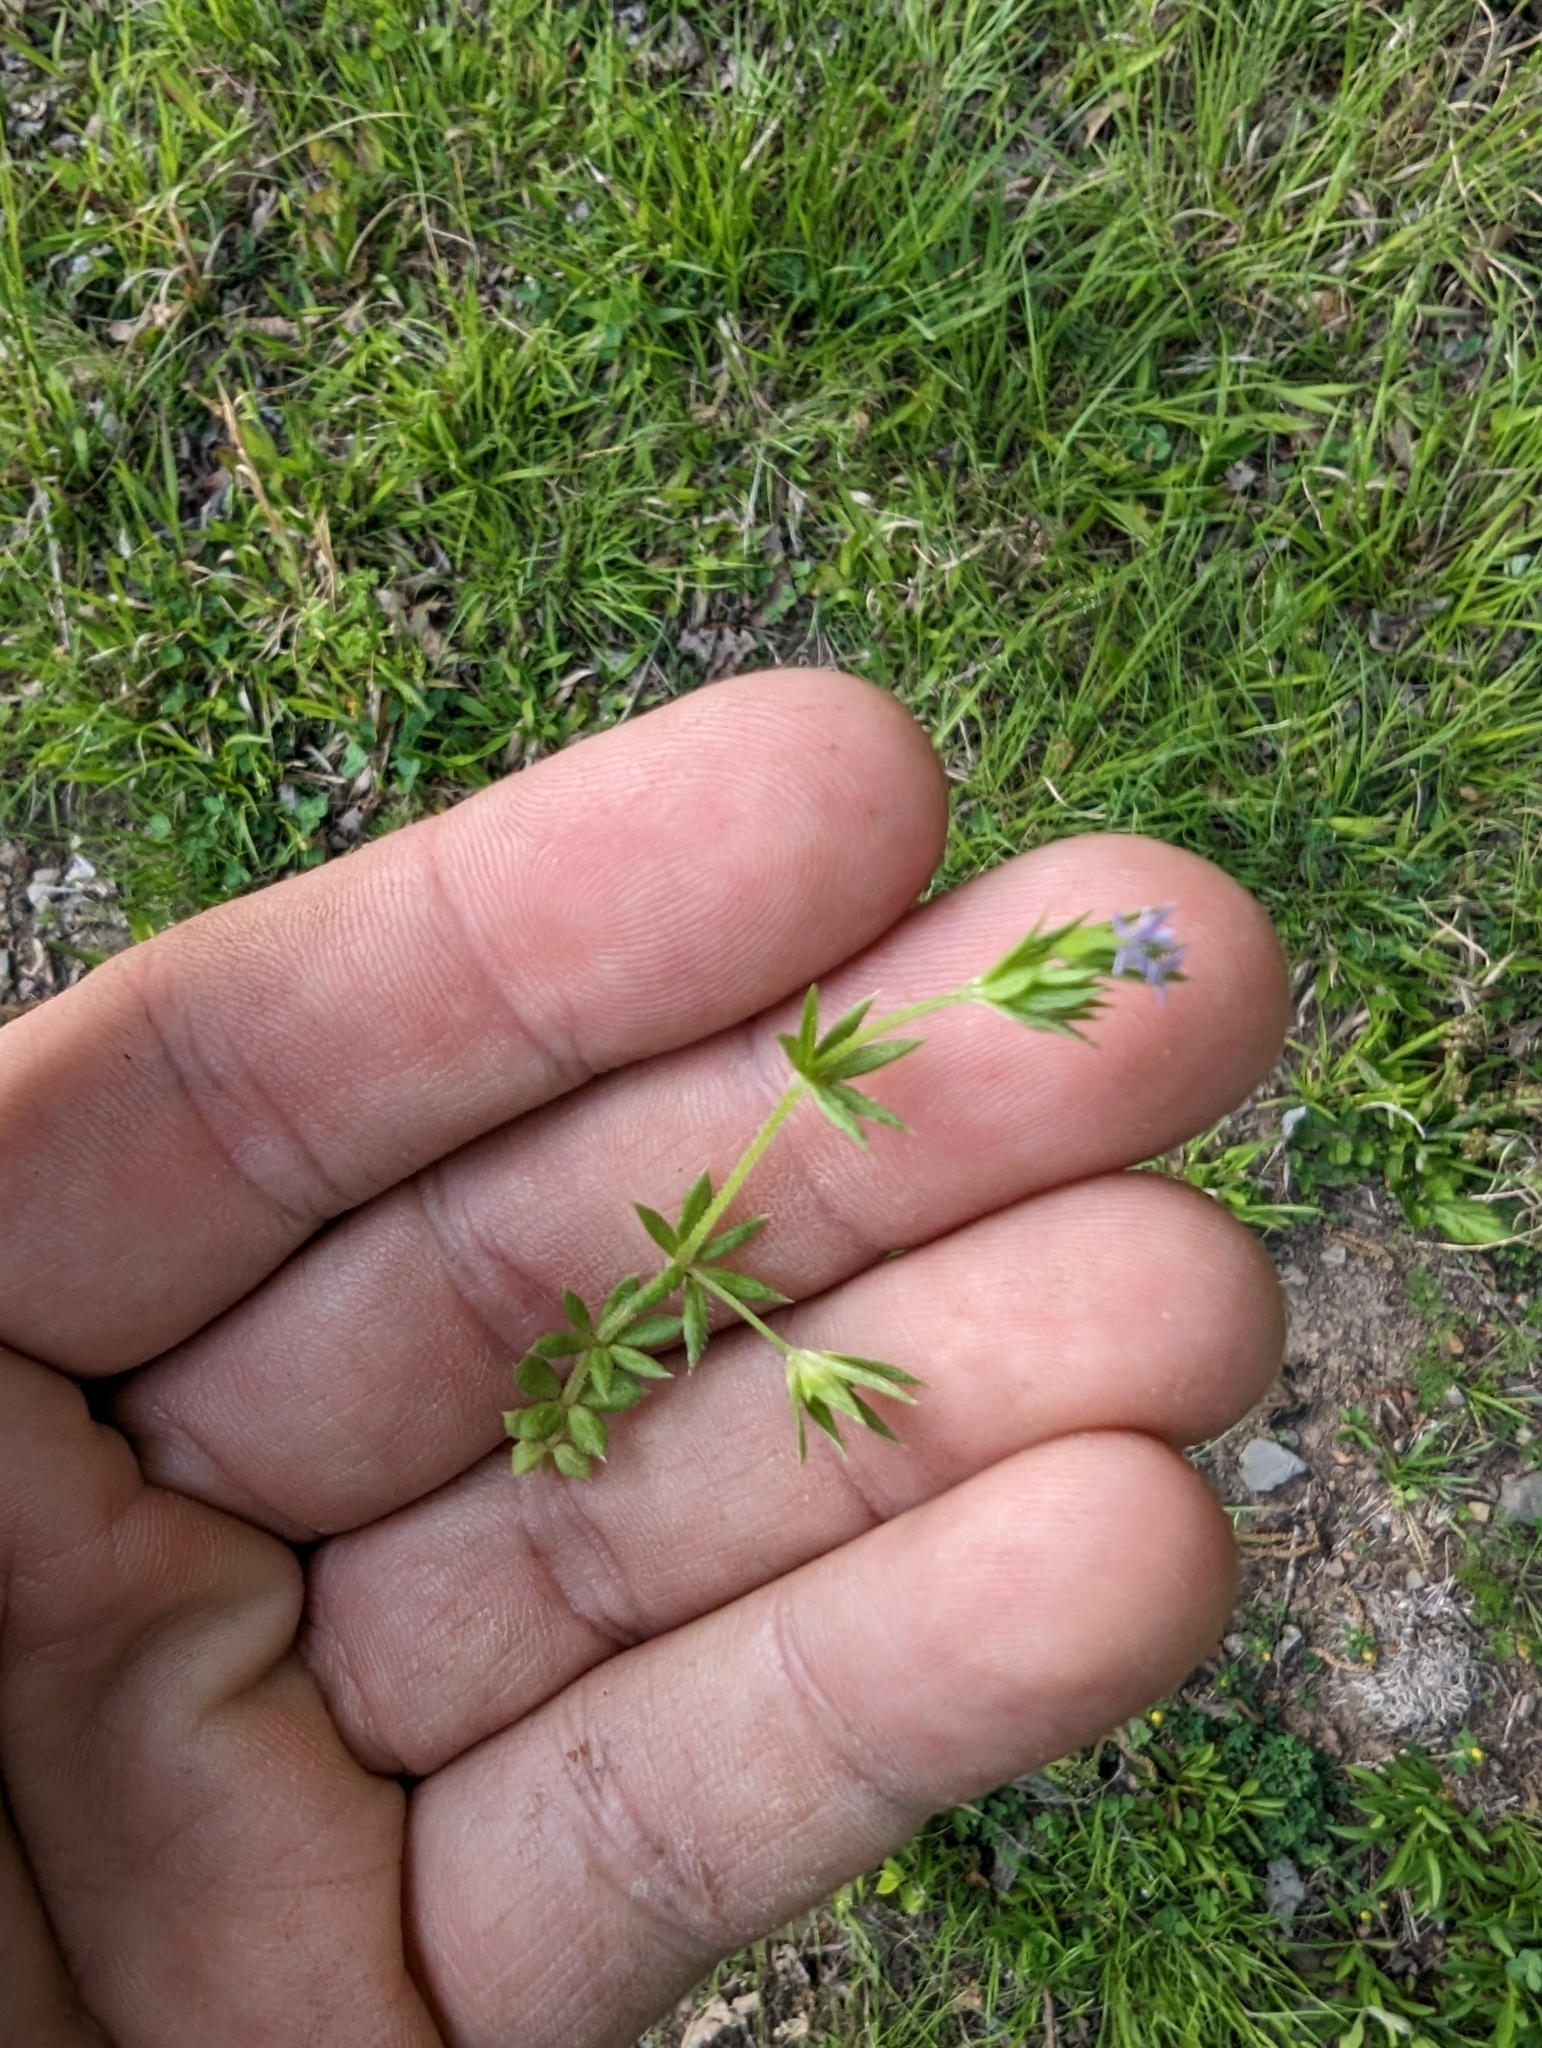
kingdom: Plantae
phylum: Tracheophyta
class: Magnoliopsida
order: Gentianales
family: Rubiaceae
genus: Sherardia
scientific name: Sherardia arvensis
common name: Field madder
